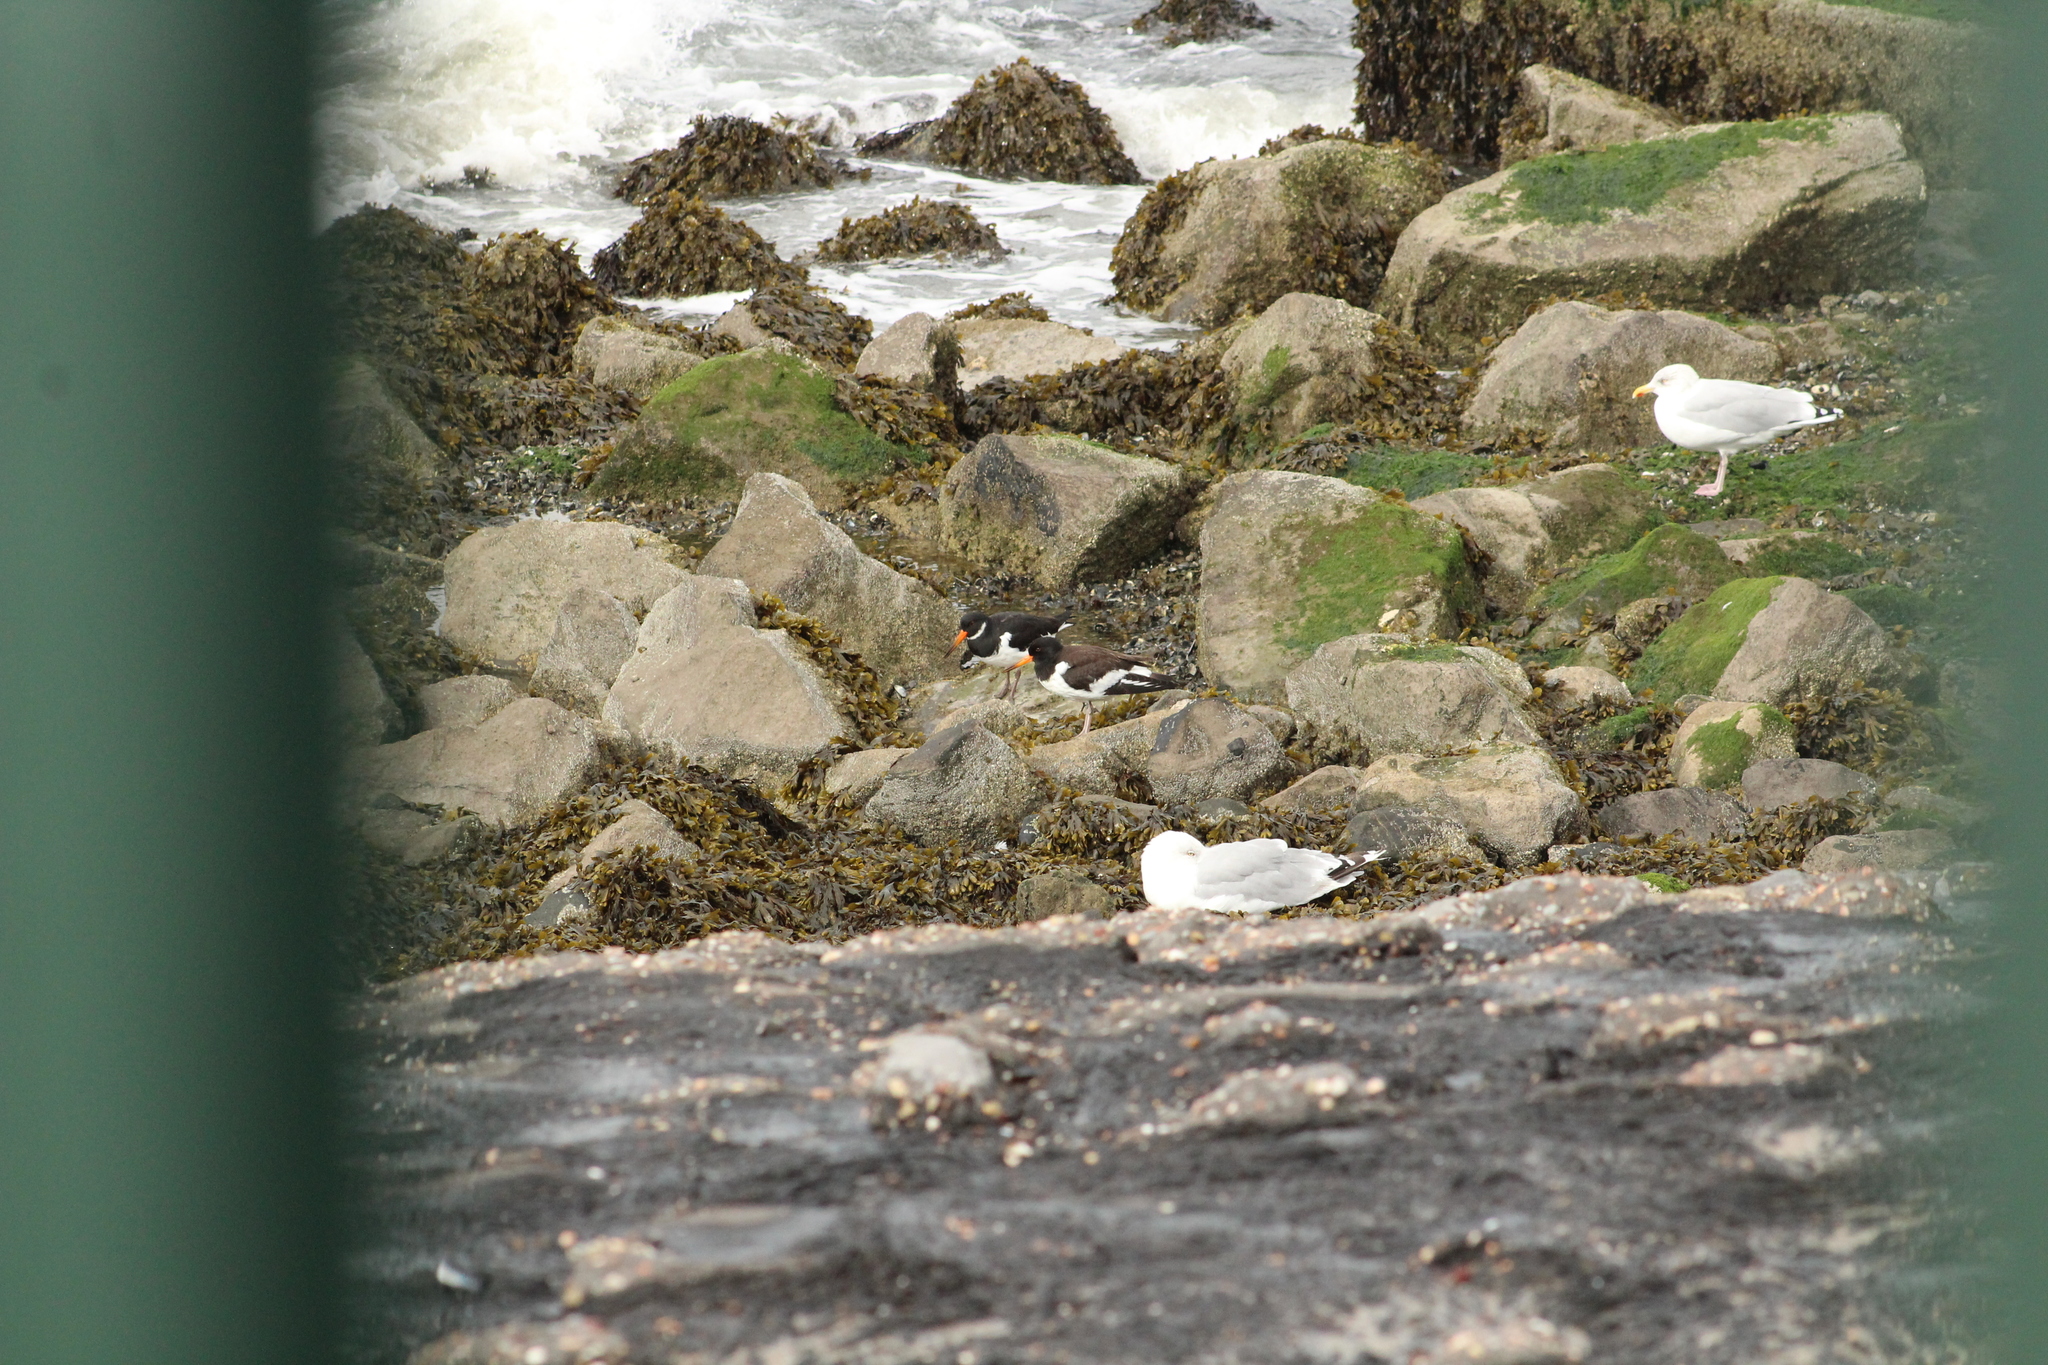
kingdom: Animalia
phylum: Chordata
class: Aves
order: Charadriiformes
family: Haematopodidae
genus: Haematopus
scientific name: Haematopus ostralegus
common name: Eurasian oystercatcher
